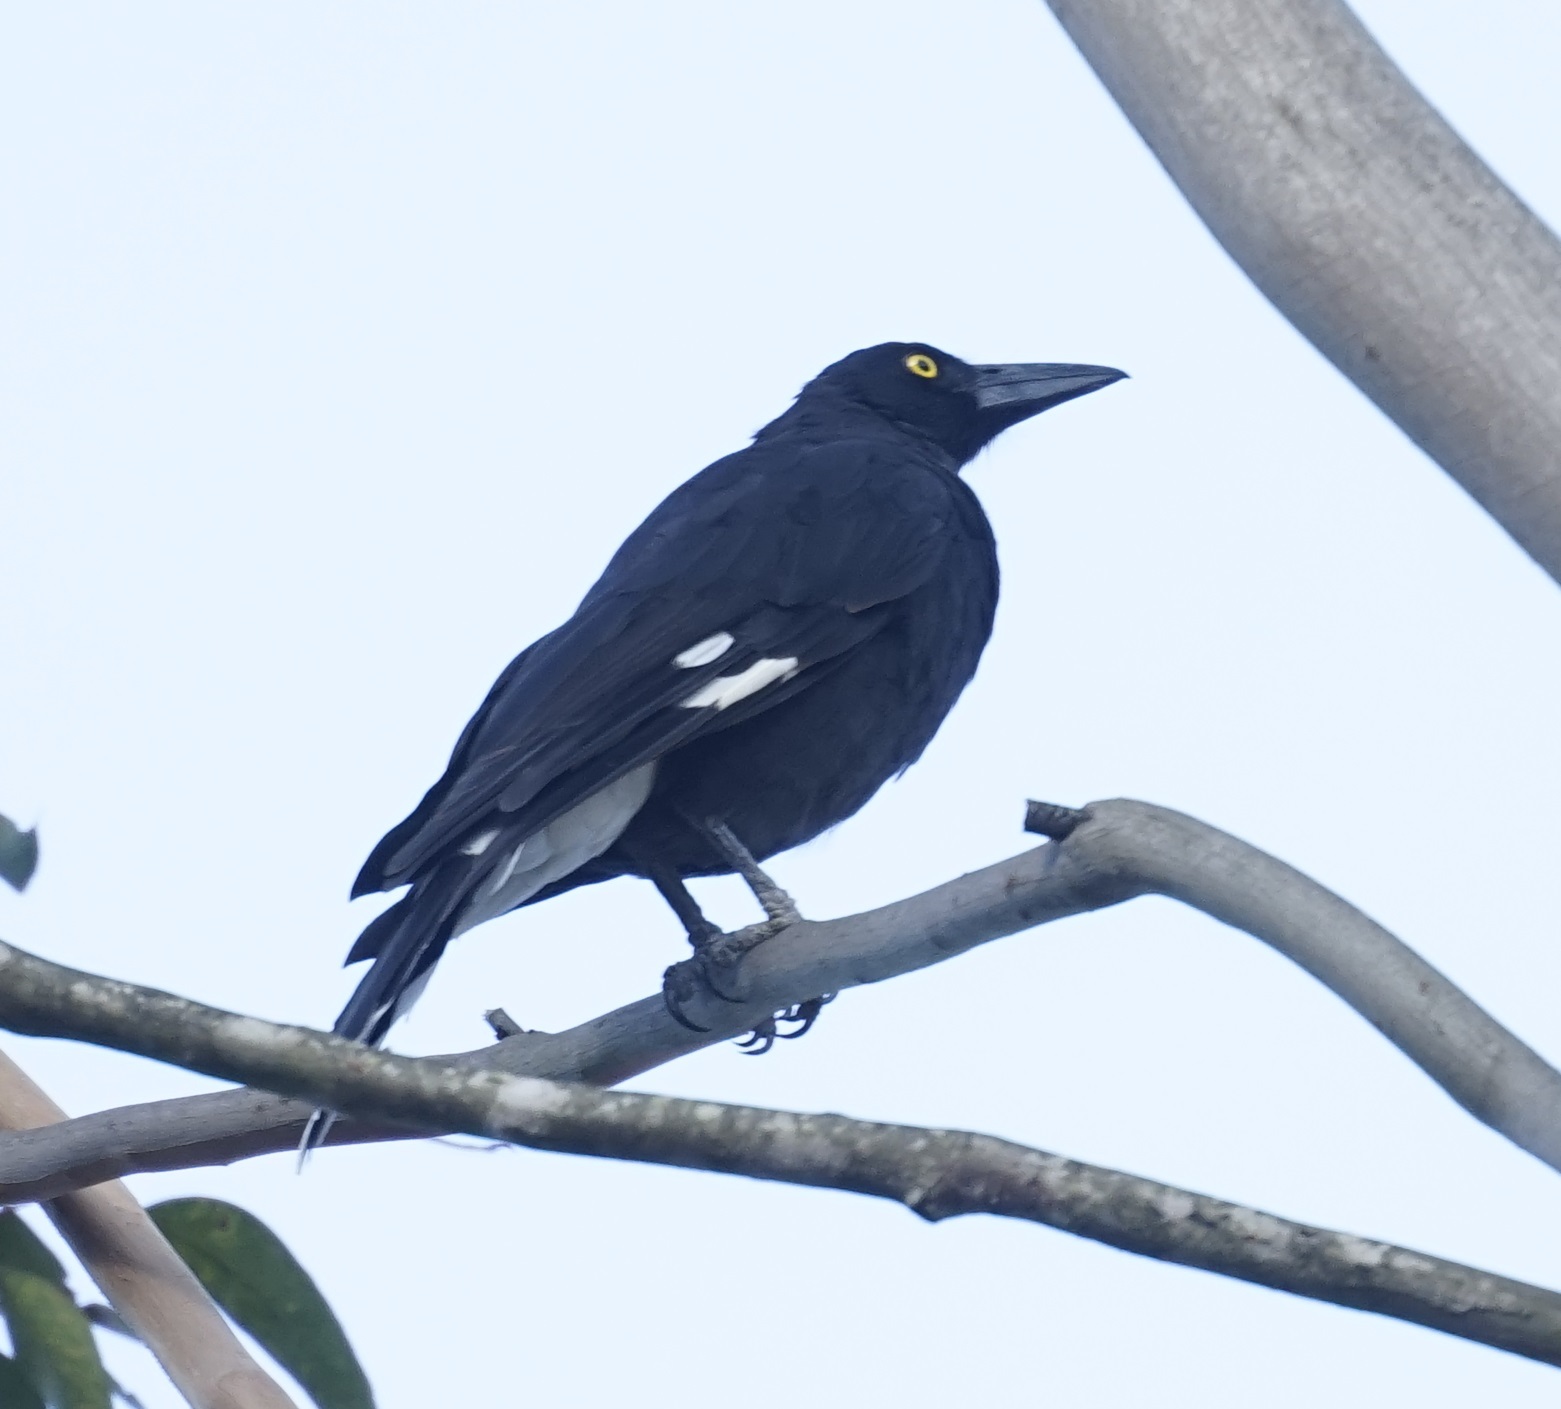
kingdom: Animalia
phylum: Chordata
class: Aves
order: Passeriformes
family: Cracticidae
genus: Strepera
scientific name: Strepera graculina
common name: Pied currawong
